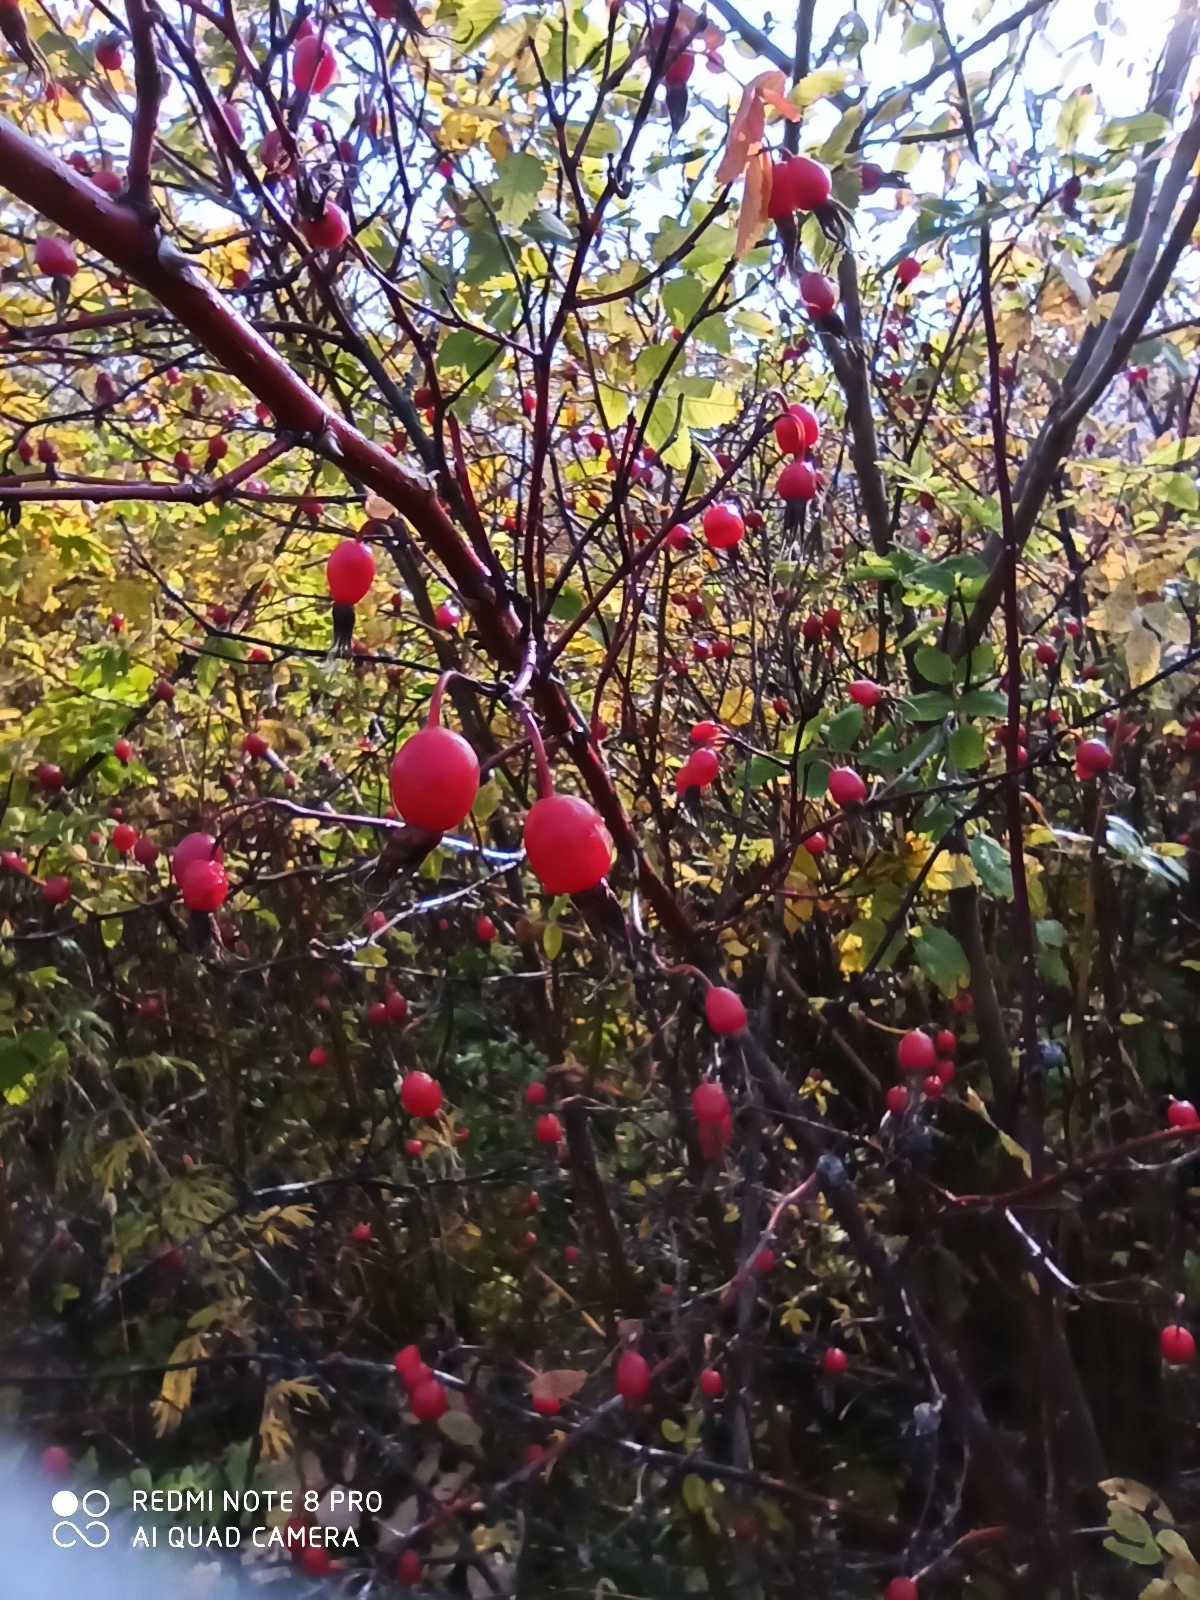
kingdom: Plantae
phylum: Tracheophyta
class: Magnoliopsida
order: Rosales
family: Rosaceae
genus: Rosa
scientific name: Rosa
